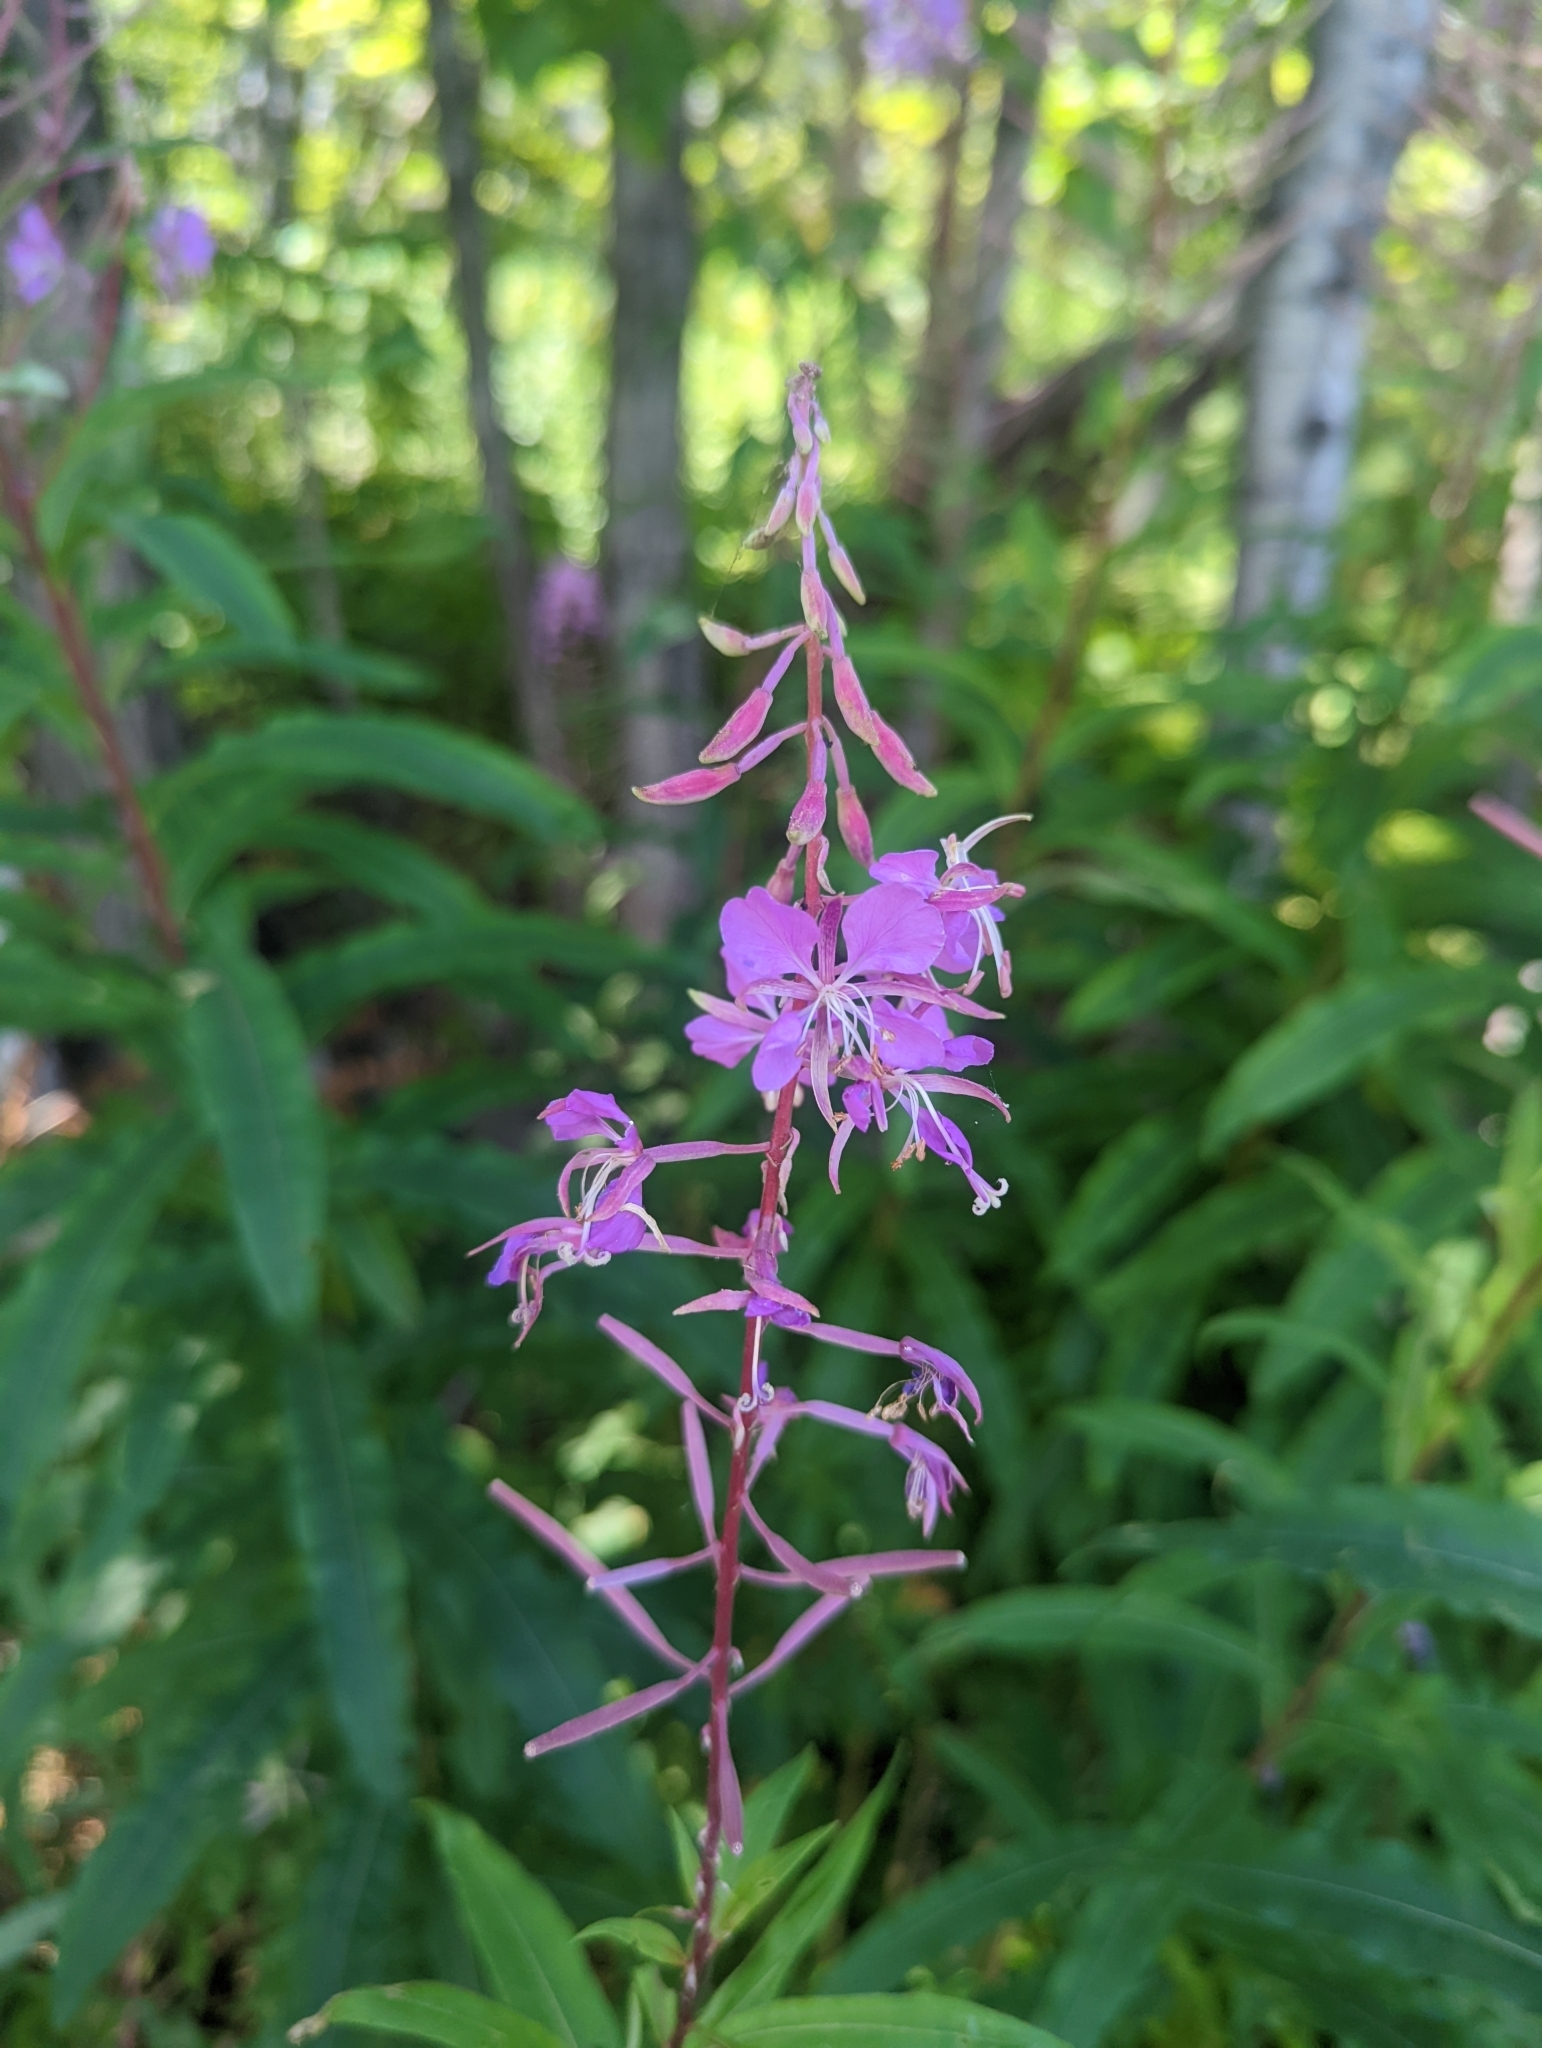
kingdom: Plantae
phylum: Tracheophyta
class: Magnoliopsida
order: Myrtales
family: Onagraceae
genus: Chamaenerion
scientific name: Chamaenerion angustifolium
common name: Fireweed
